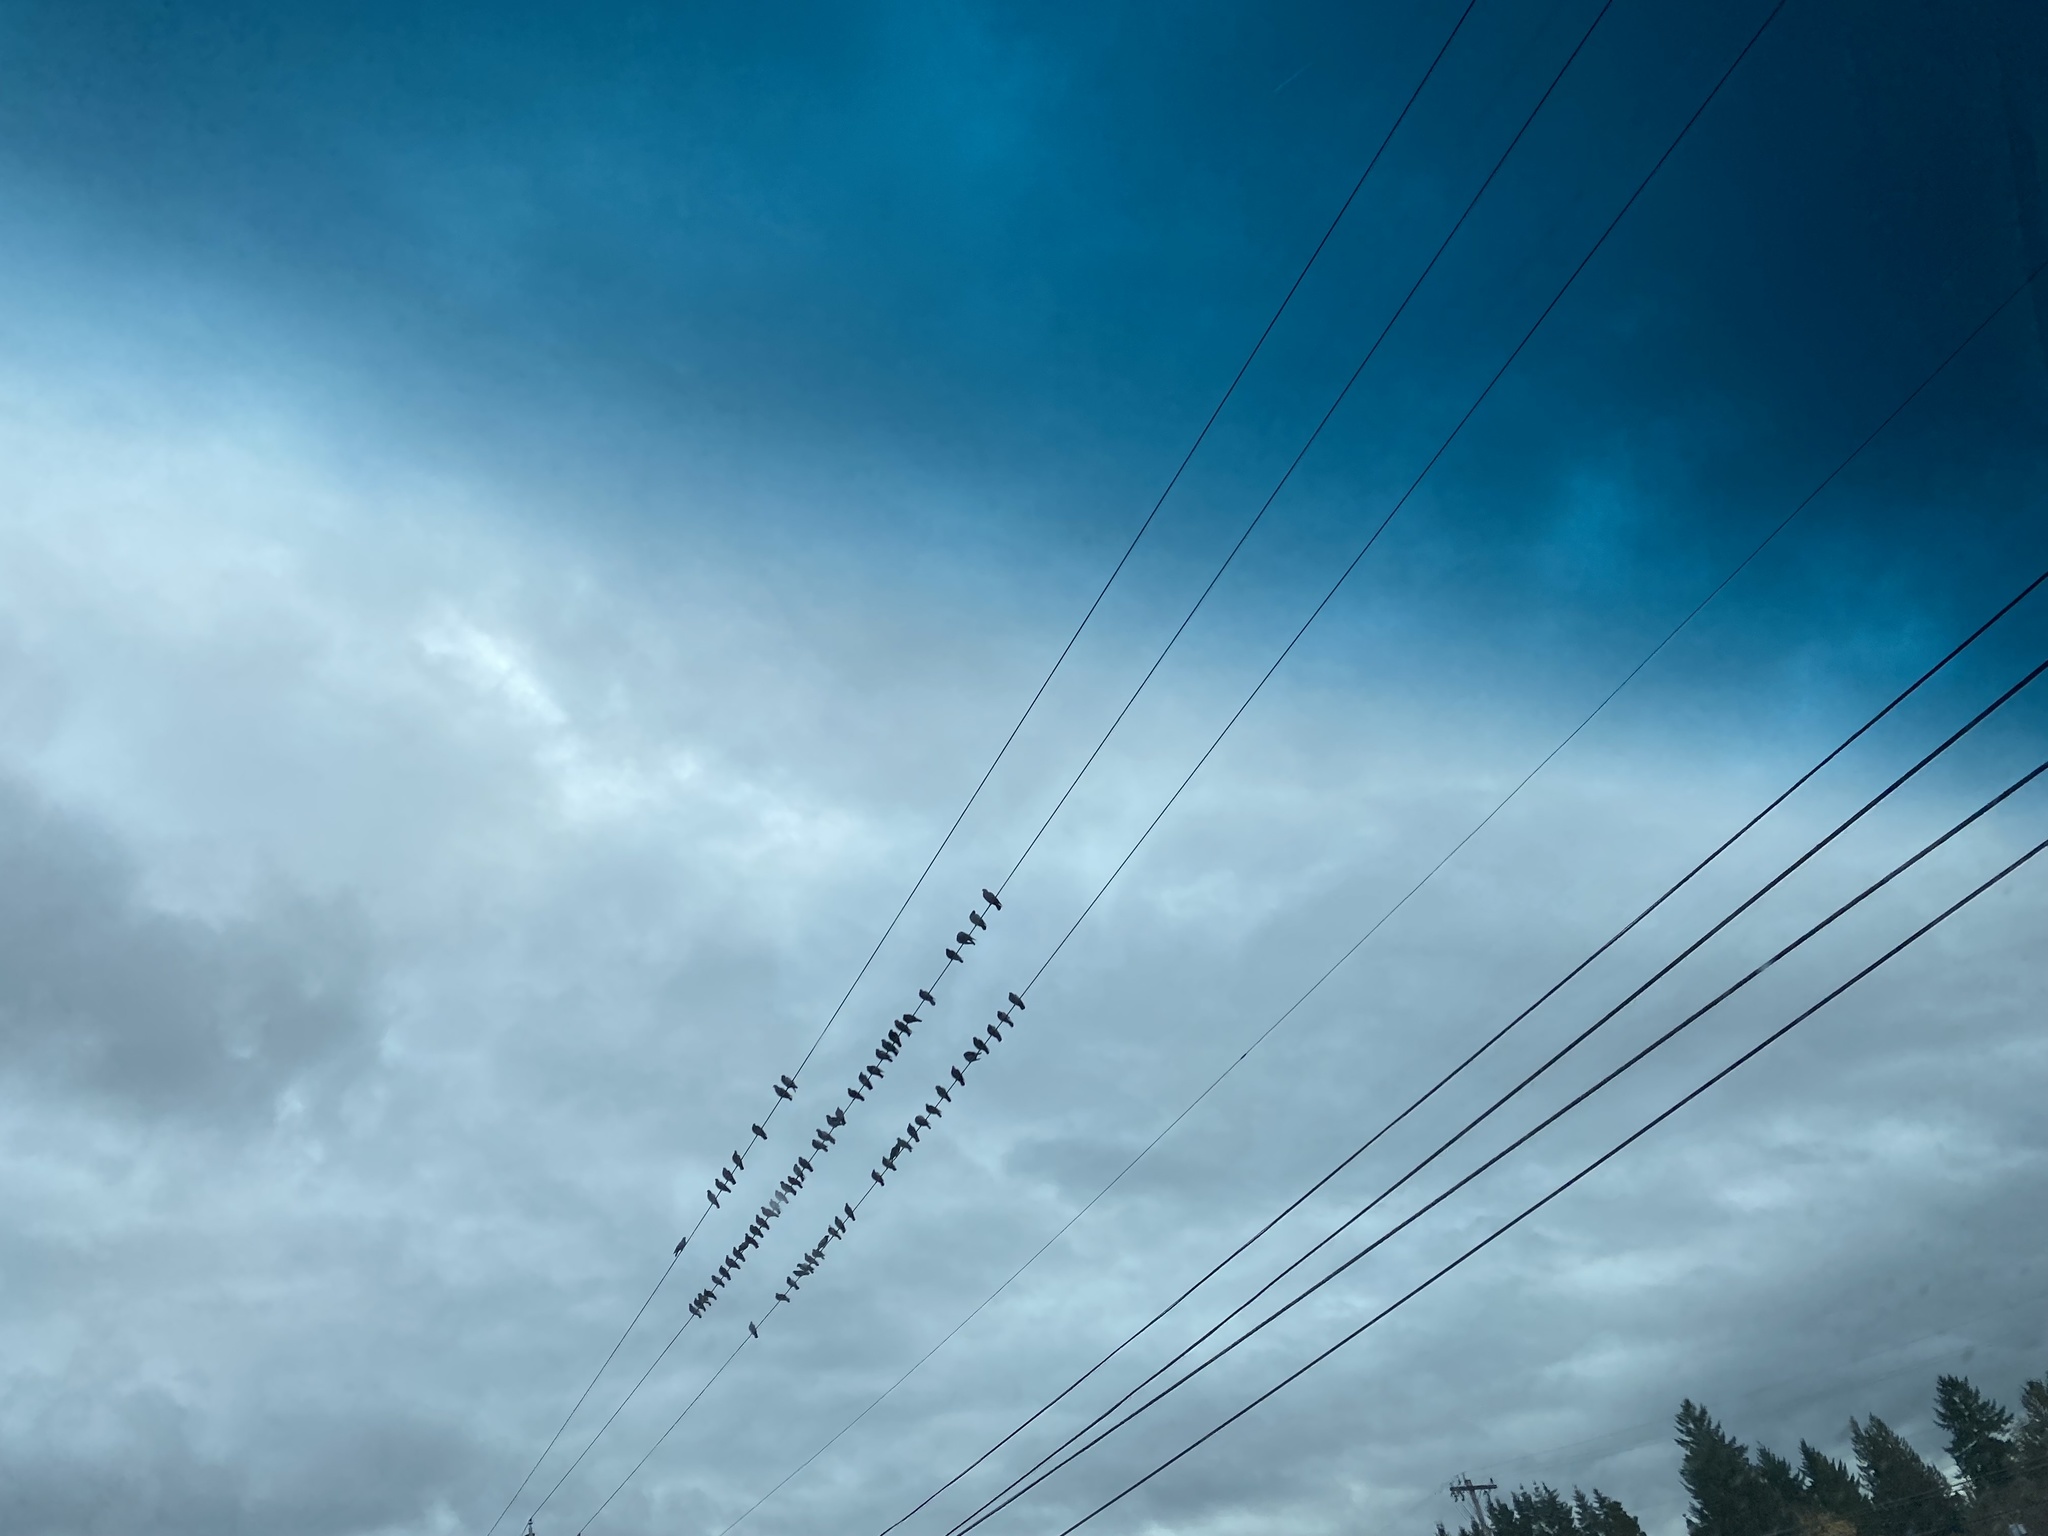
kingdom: Animalia
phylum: Chordata
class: Aves
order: Columbiformes
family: Columbidae
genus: Columba
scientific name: Columba livia
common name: Rock pigeon
